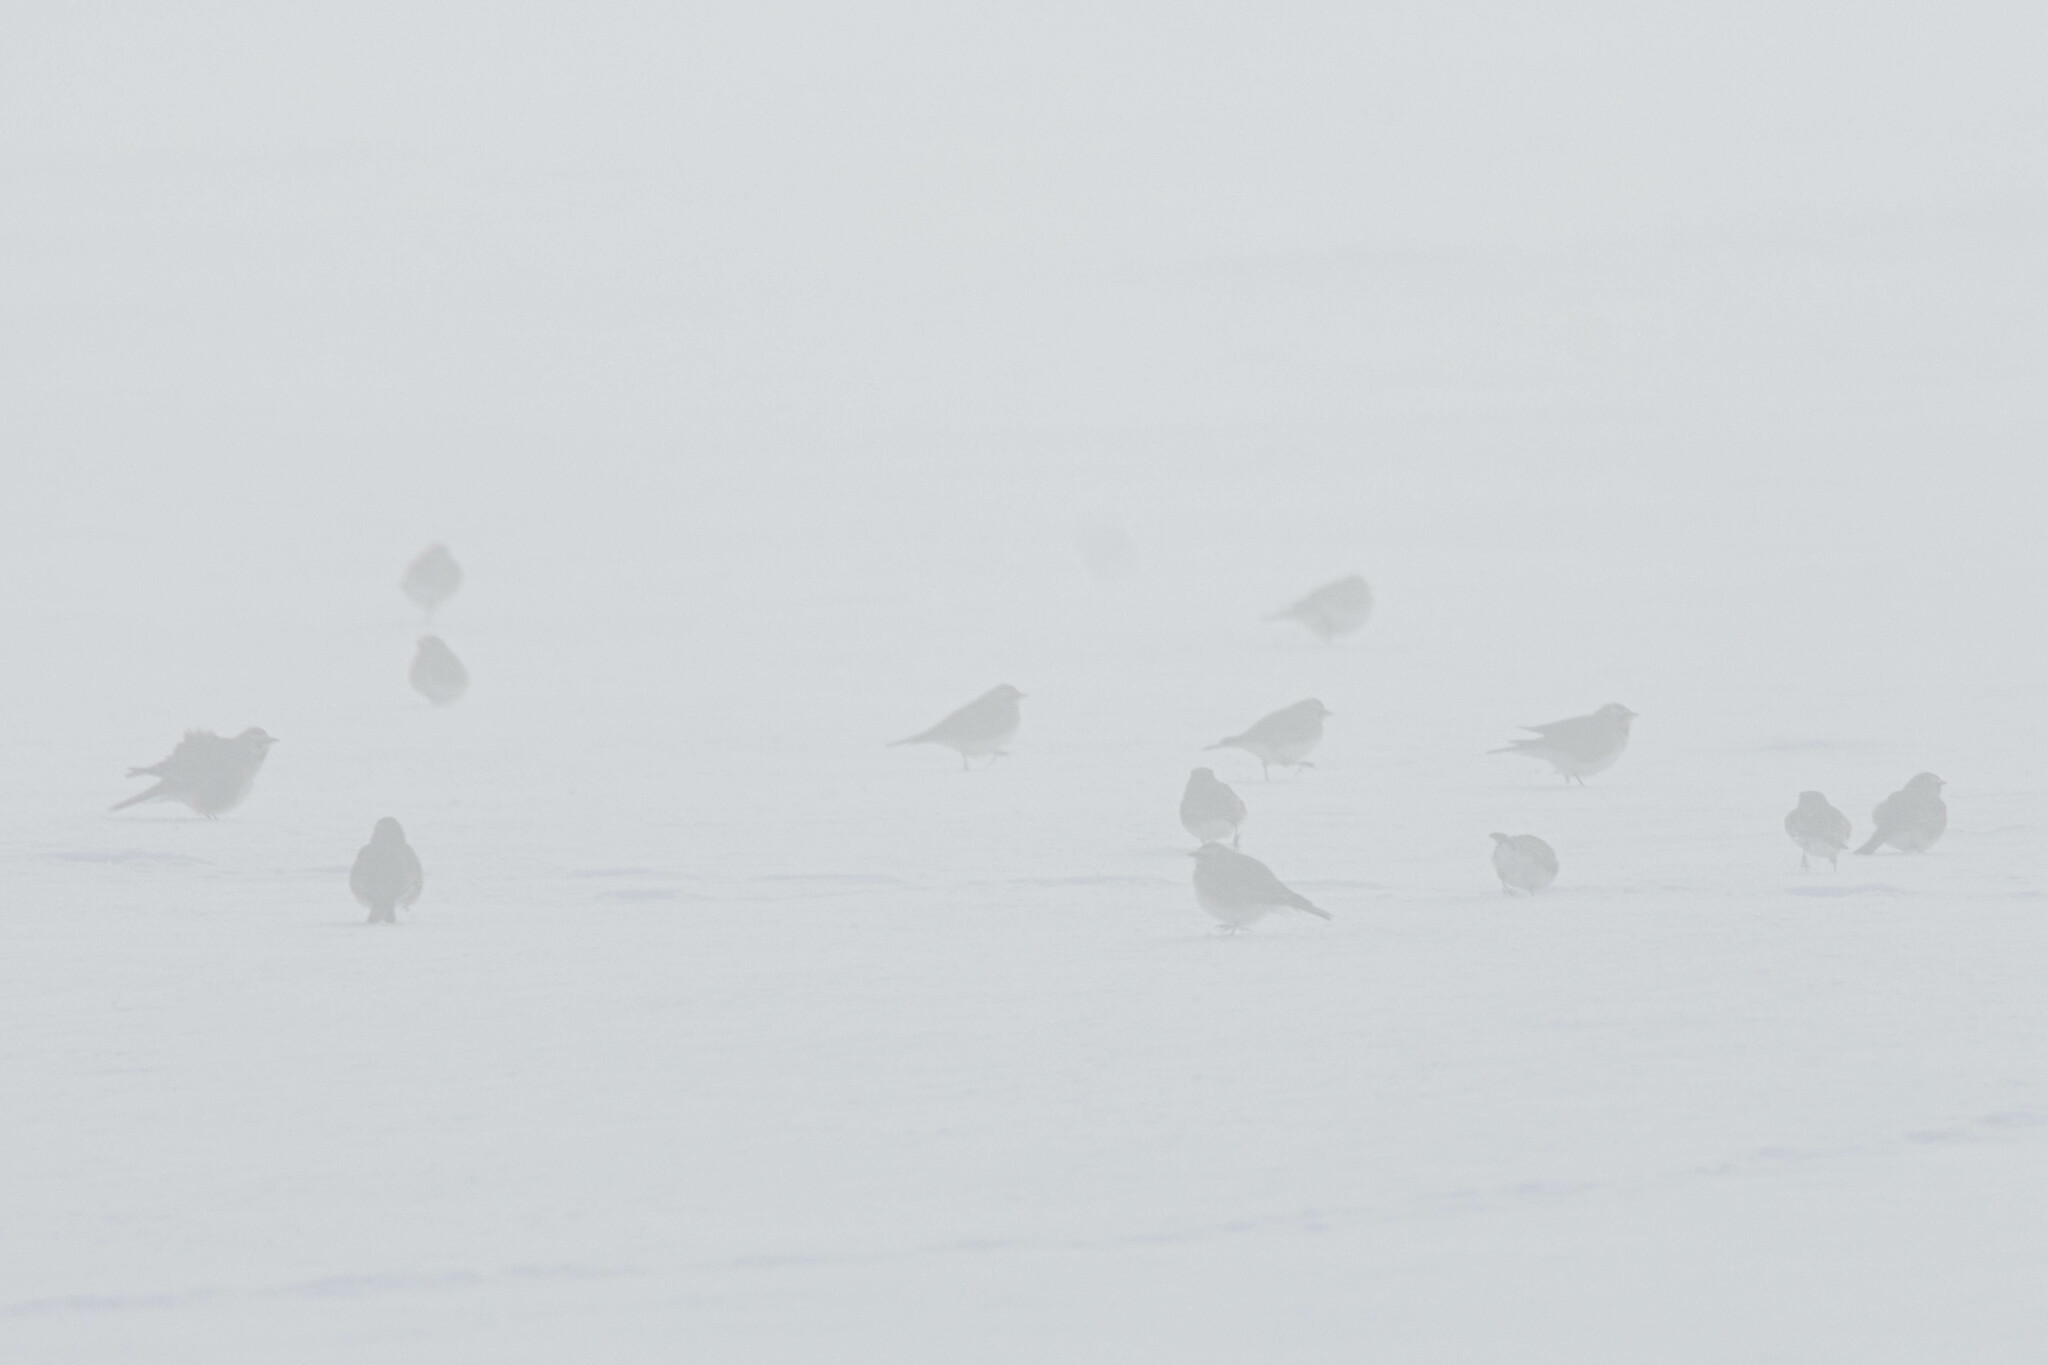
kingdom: Animalia
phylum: Chordata
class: Aves
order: Passeriformes
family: Alaudidae
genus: Eremophila
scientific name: Eremophila alpestris
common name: Horned lark
